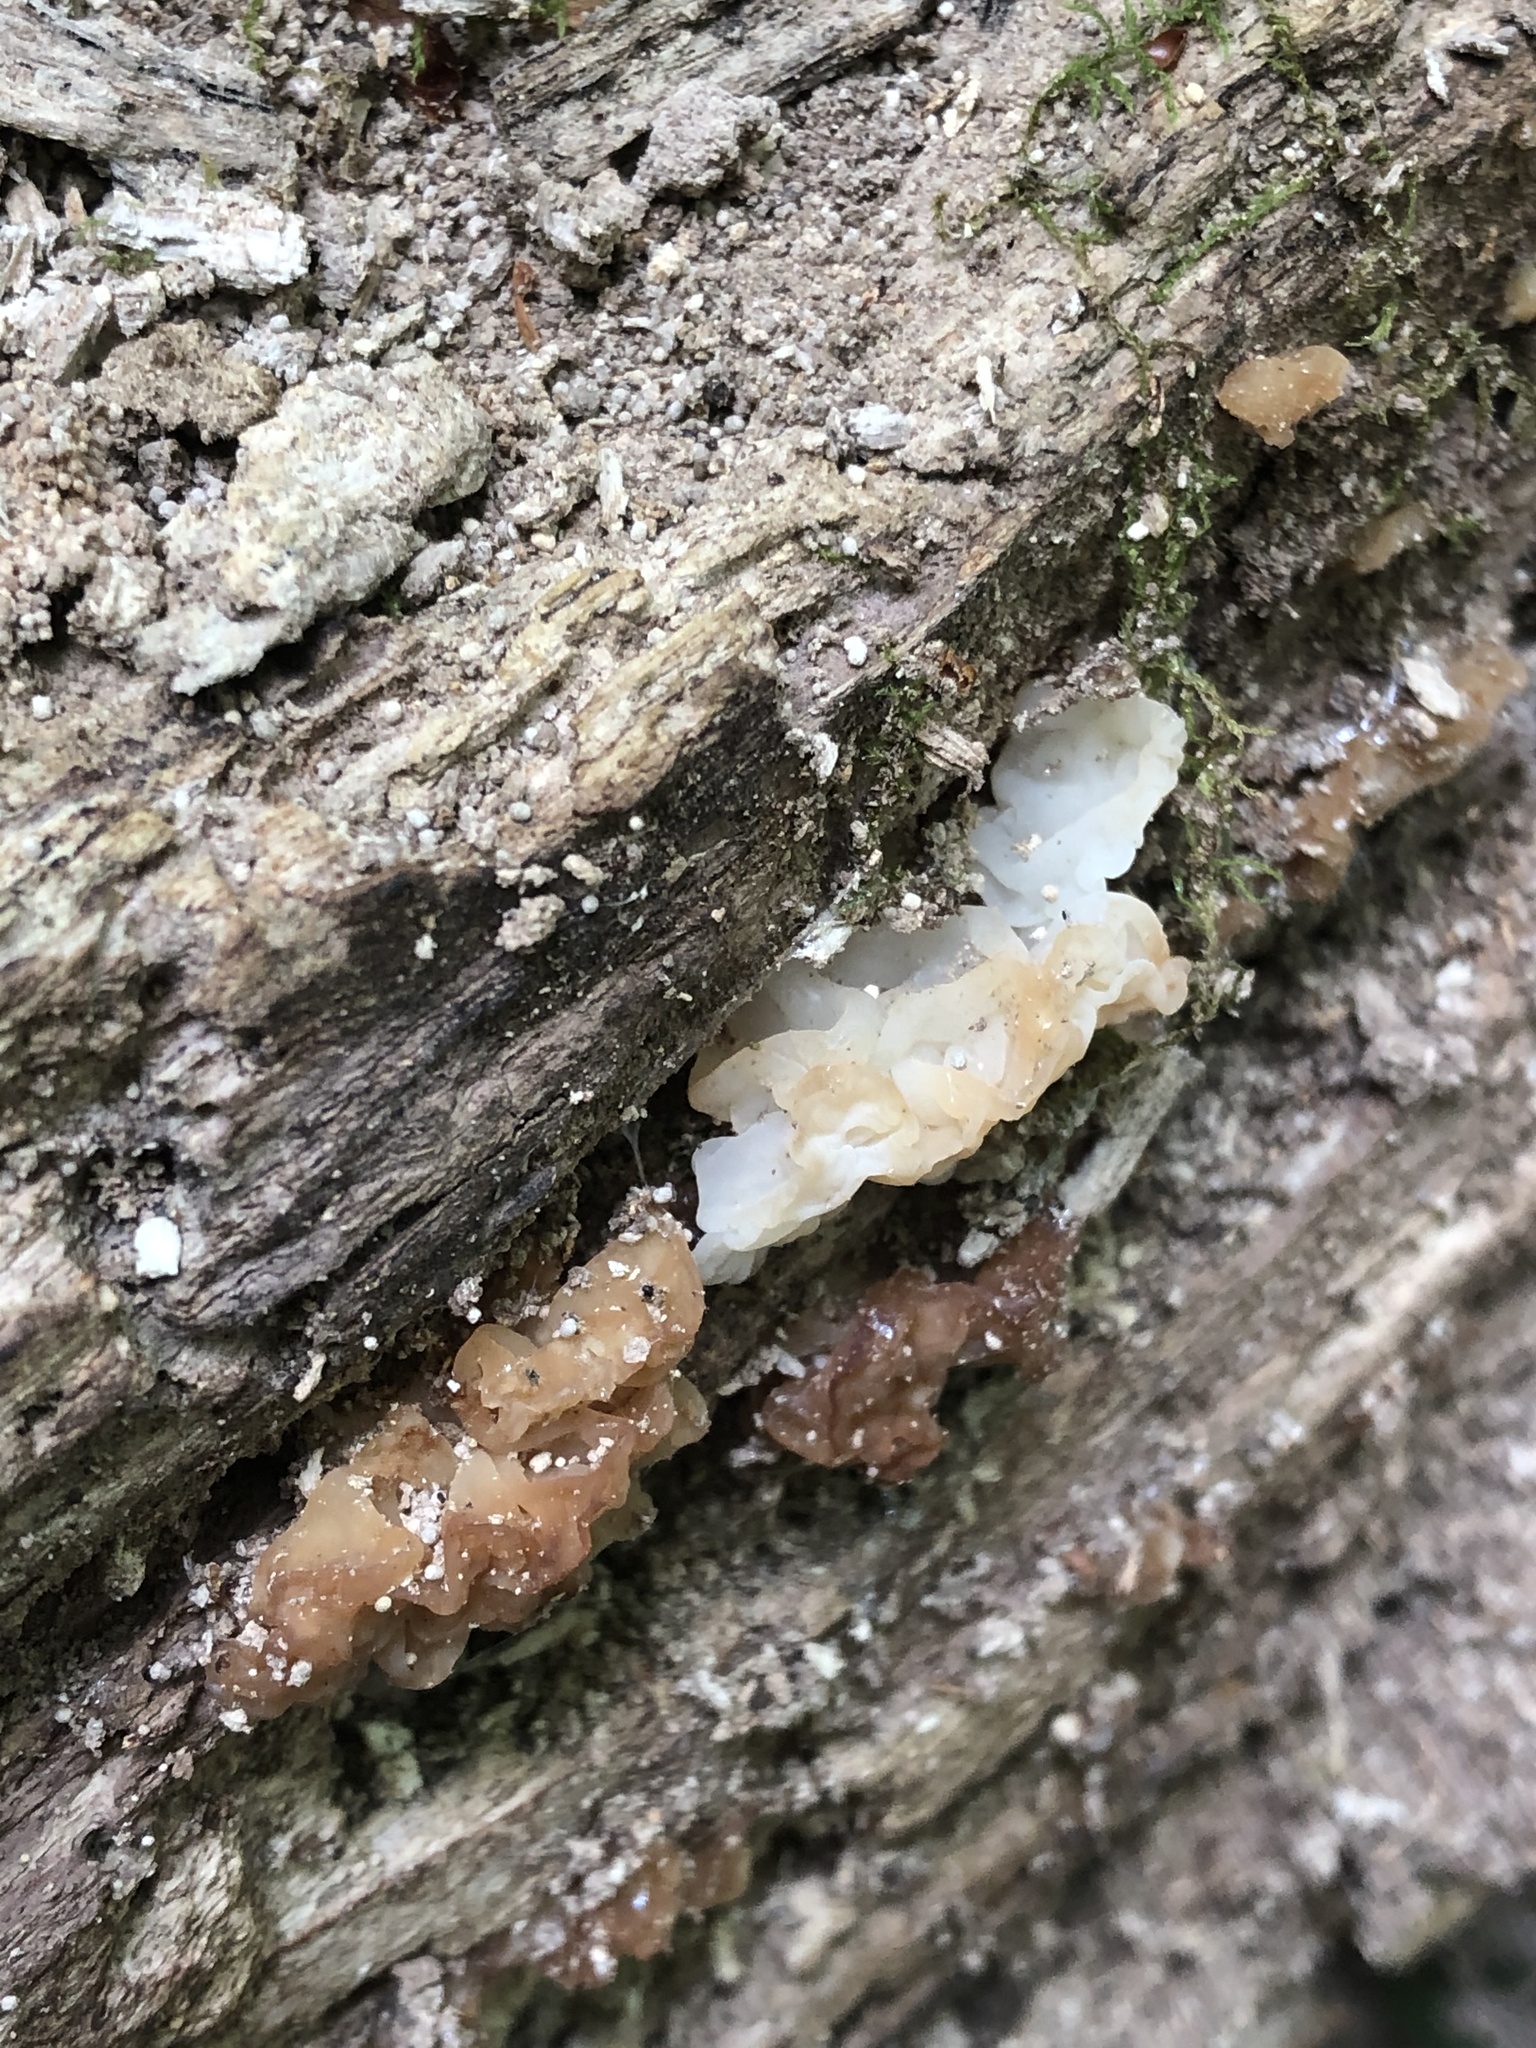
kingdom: Fungi
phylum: Basidiomycota
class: Agaricomycetes
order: Auriculariales
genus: Ductifera
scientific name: Ductifera pululahuana
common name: White jelly fungus
